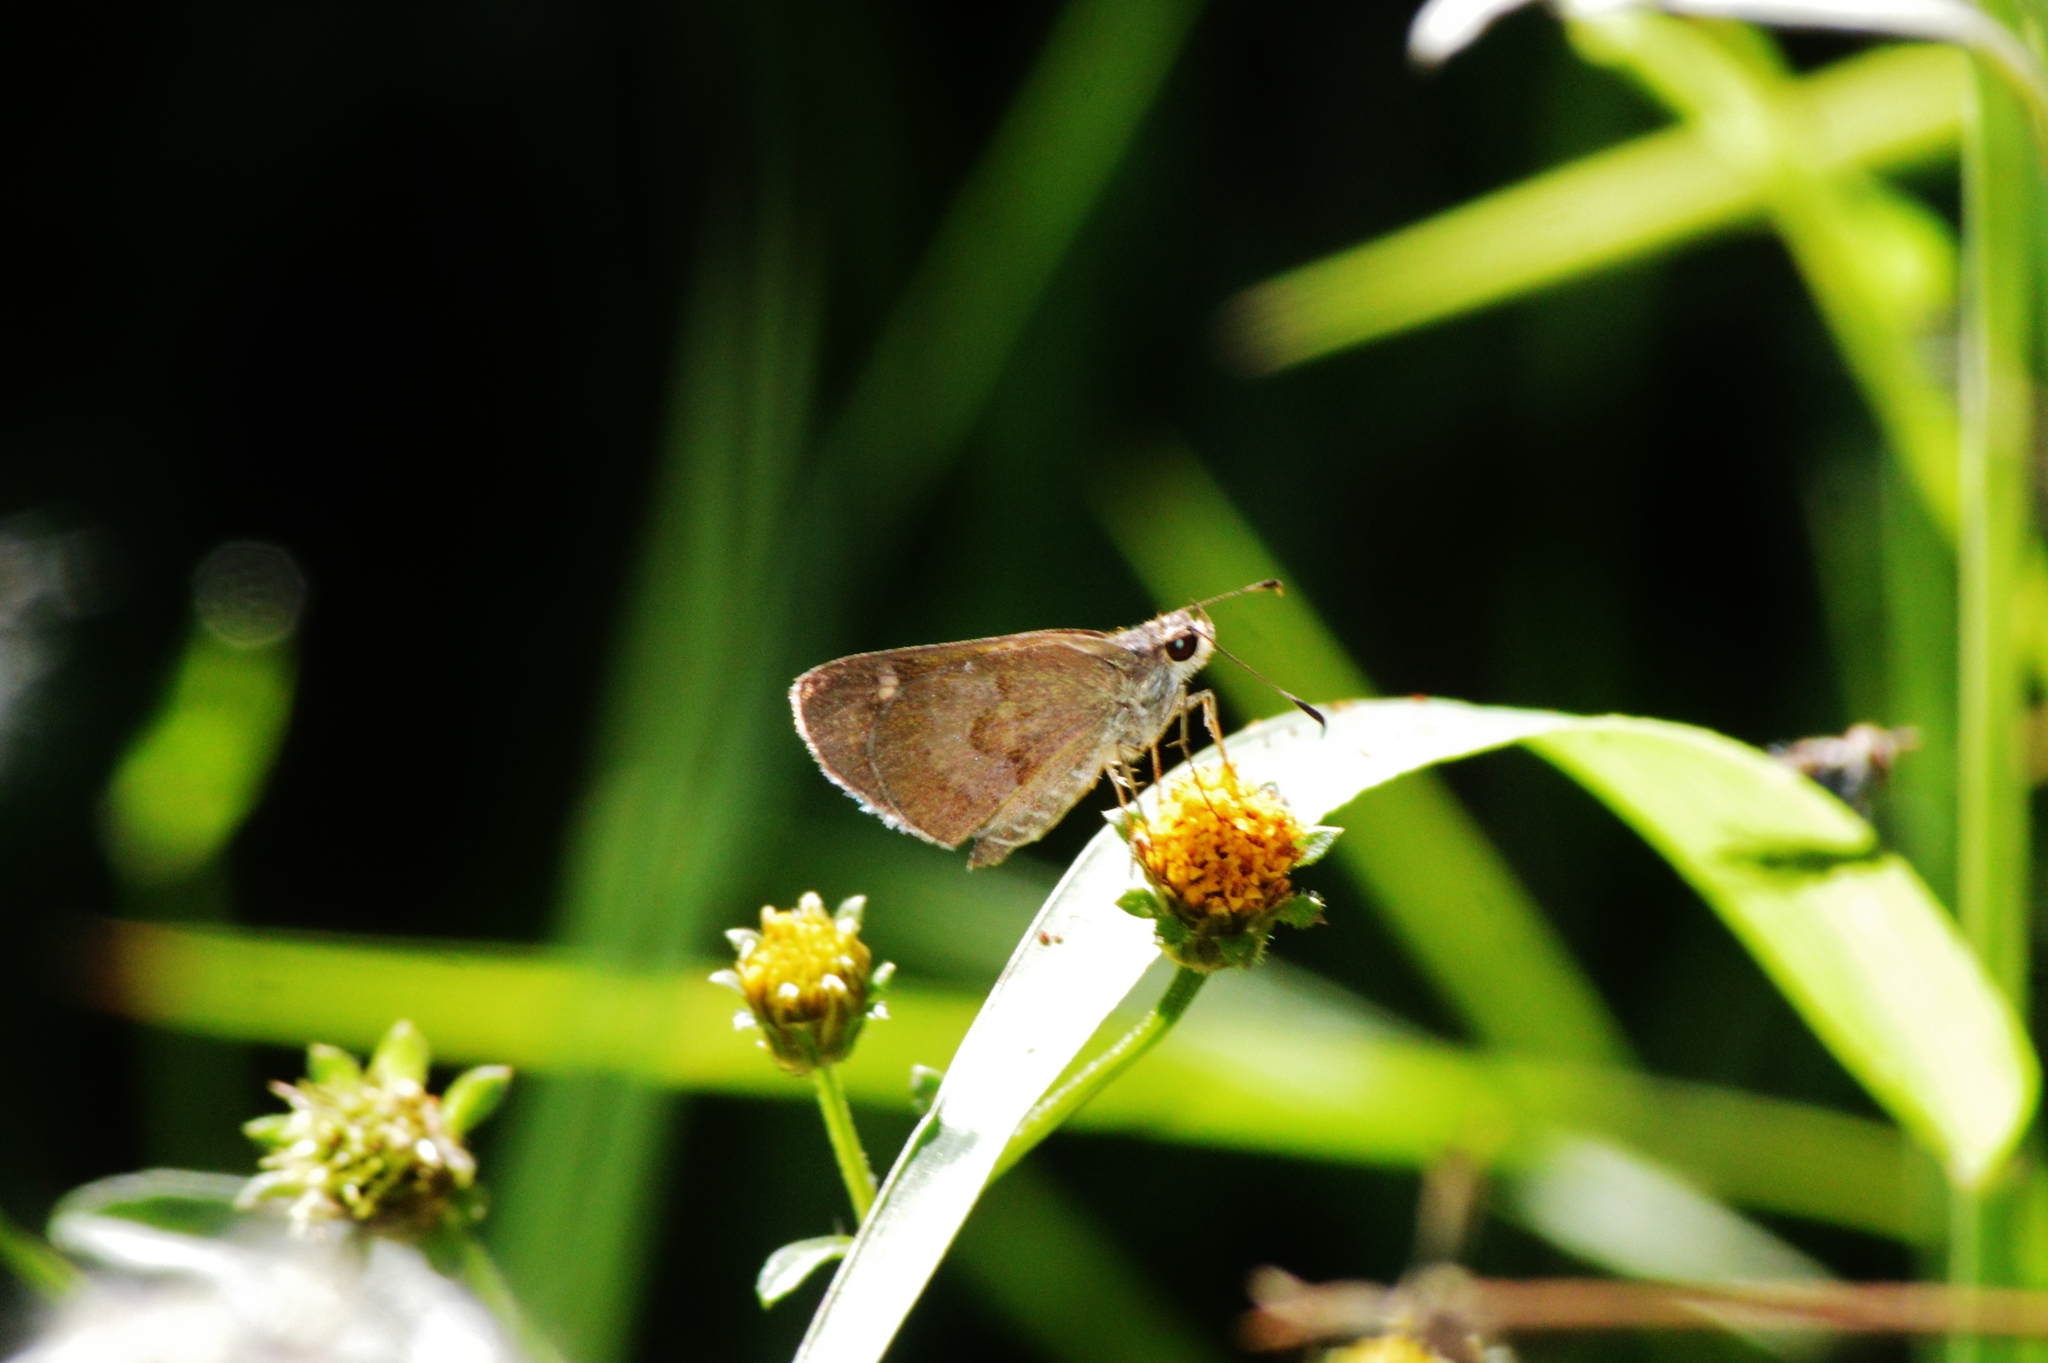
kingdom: Animalia
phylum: Arthropoda
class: Insecta
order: Lepidoptera
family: Hesperiidae
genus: Callimormus
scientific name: Callimormus corades
